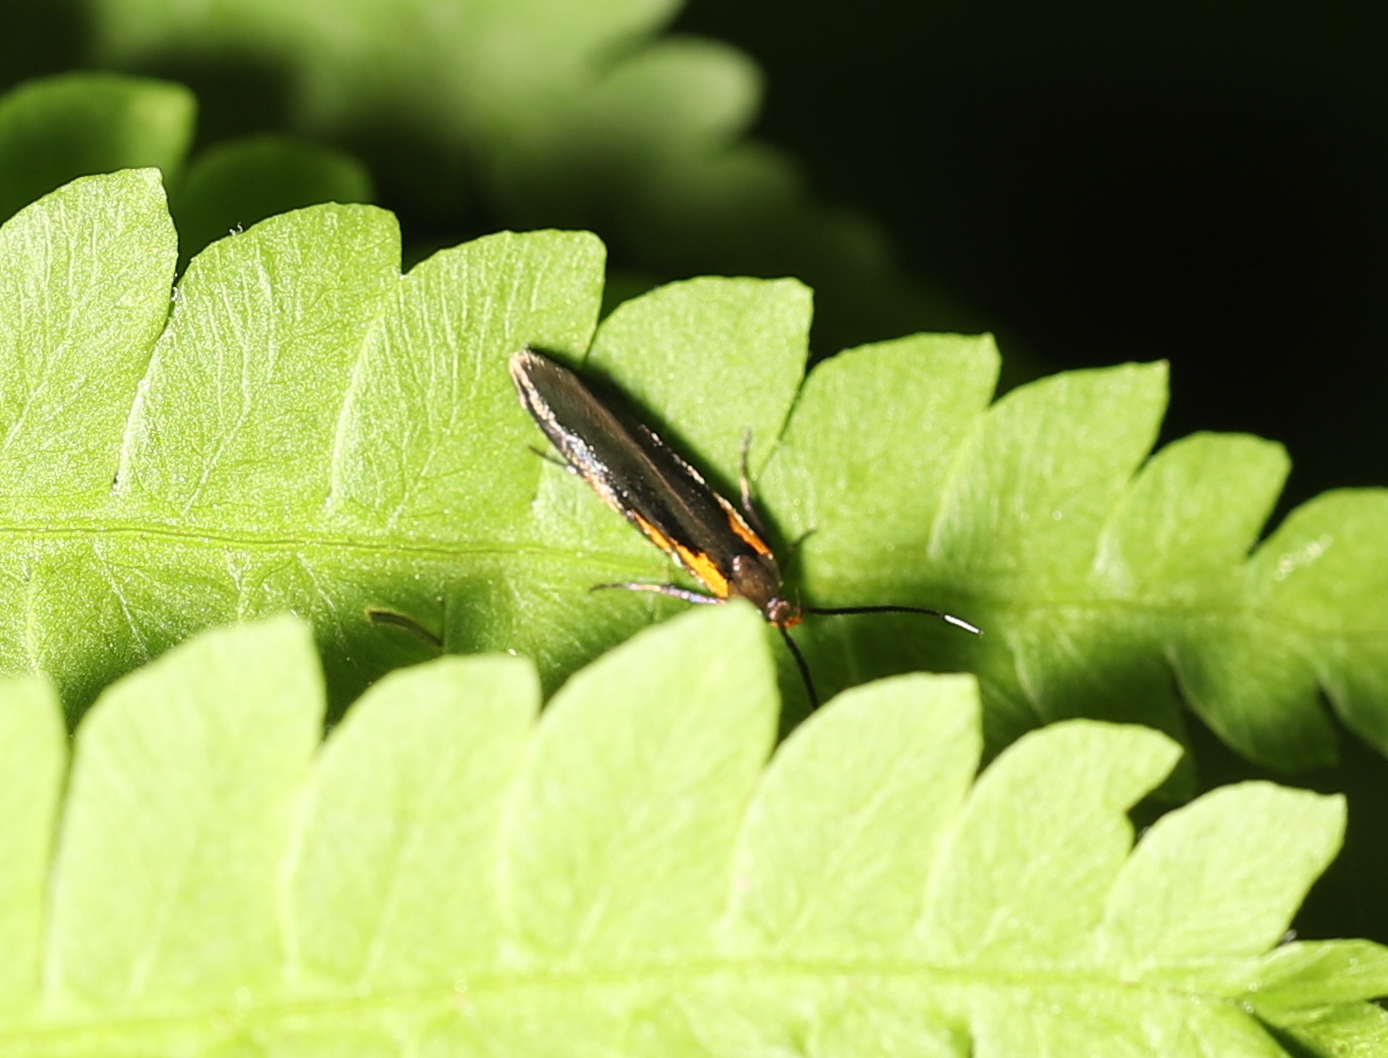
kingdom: Animalia
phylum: Arthropoda
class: Insecta
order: Lepidoptera
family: Oecophoridae
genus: Mathildana
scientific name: Mathildana newmanella
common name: Newman's mathildana moth
